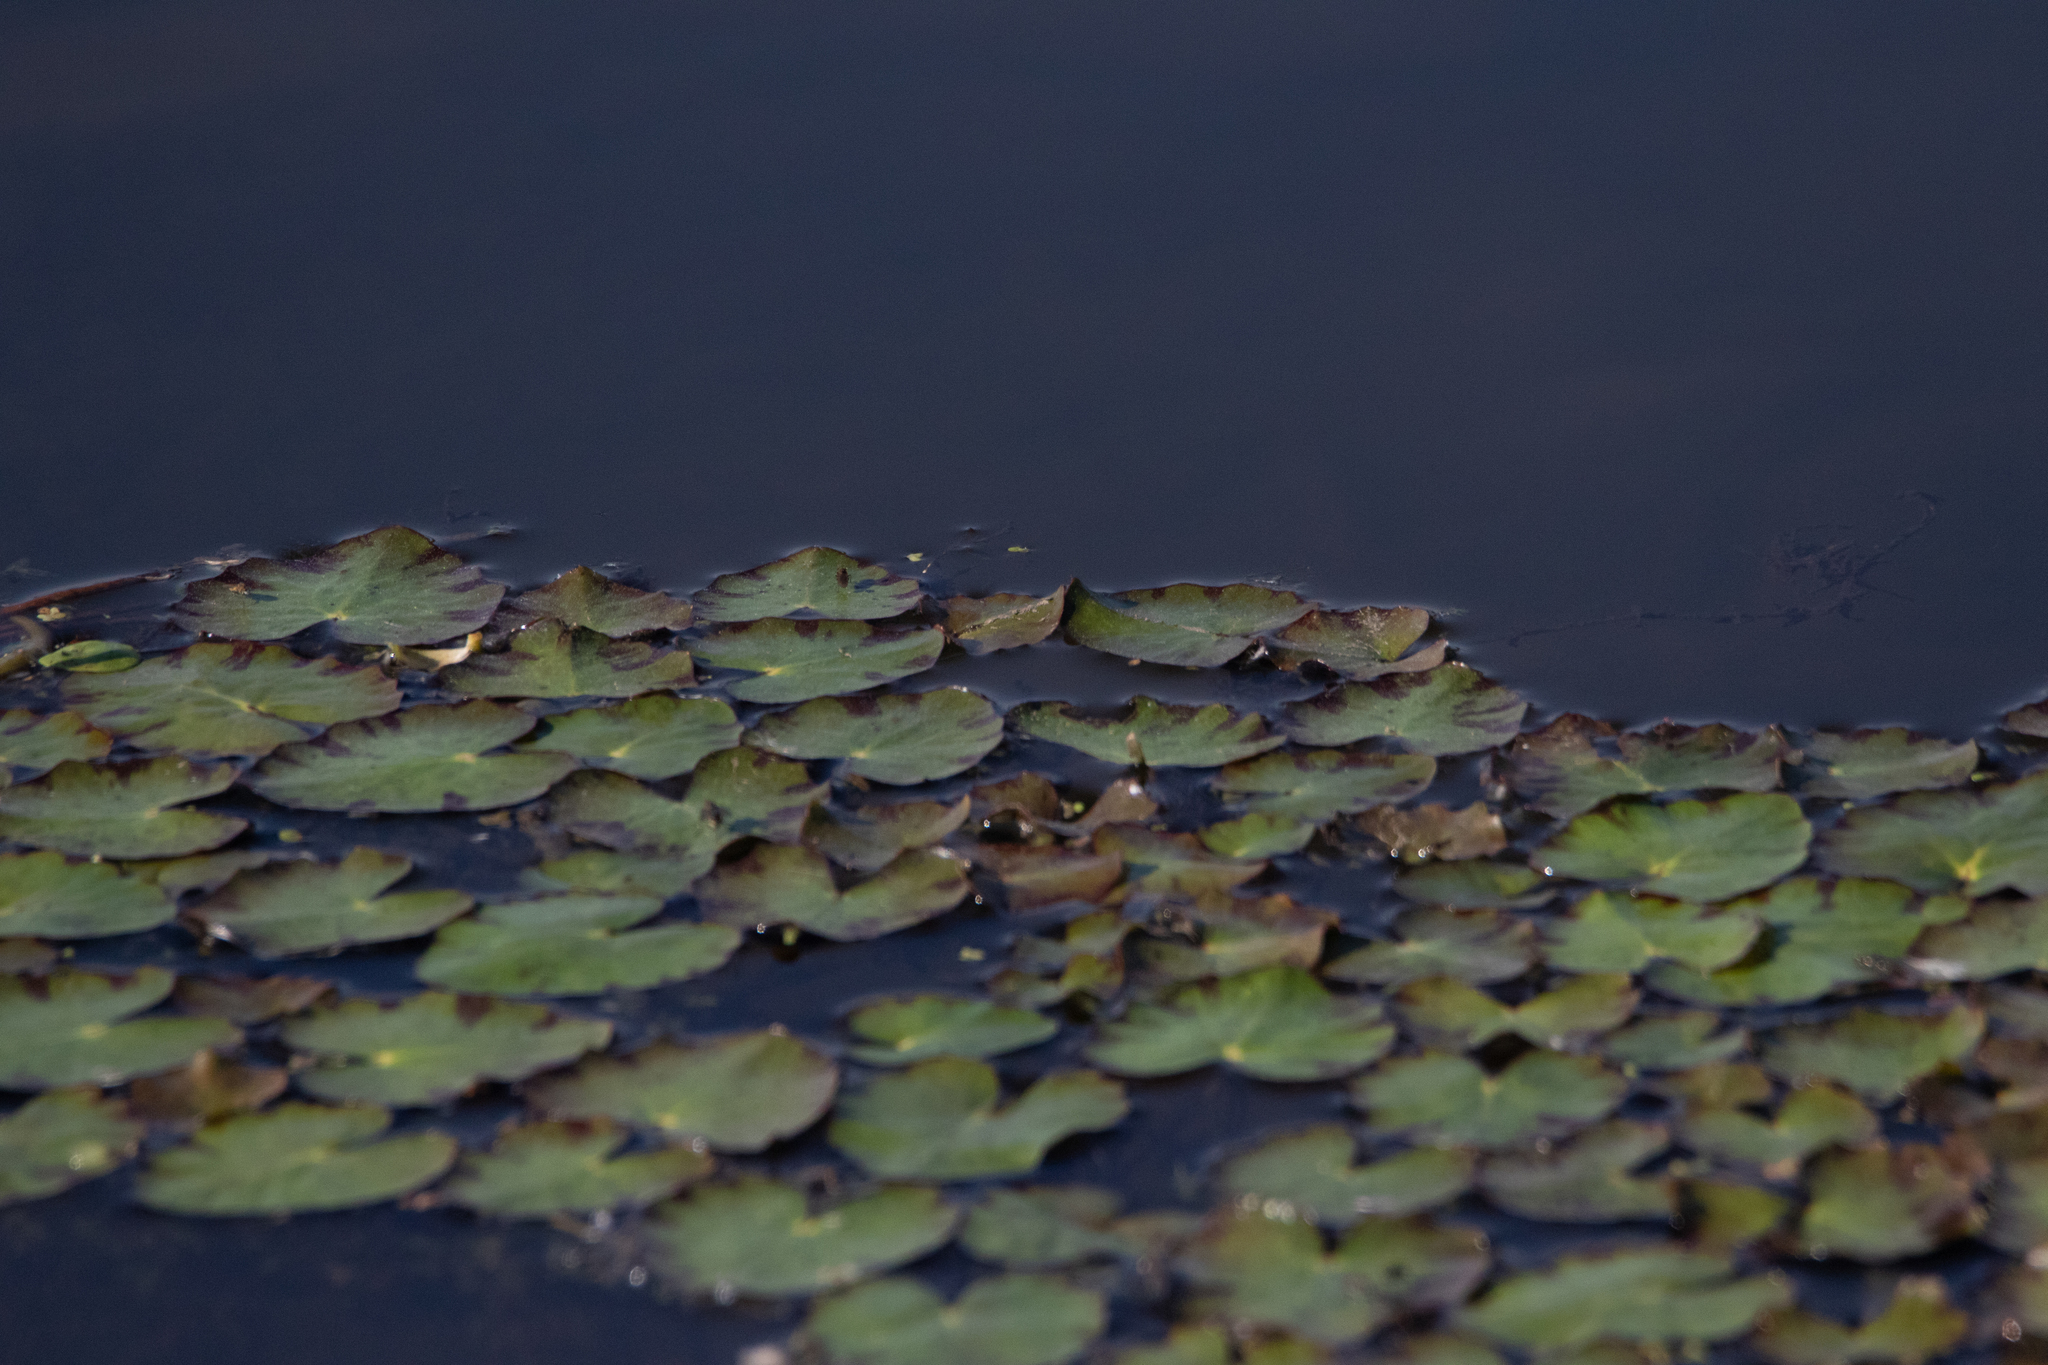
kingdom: Plantae
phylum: Tracheophyta
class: Magnoliopsida
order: Asterales
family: Menyanthaceae
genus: Nymphoides
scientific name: Nymphoides peltata
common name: Fringed water-lily
